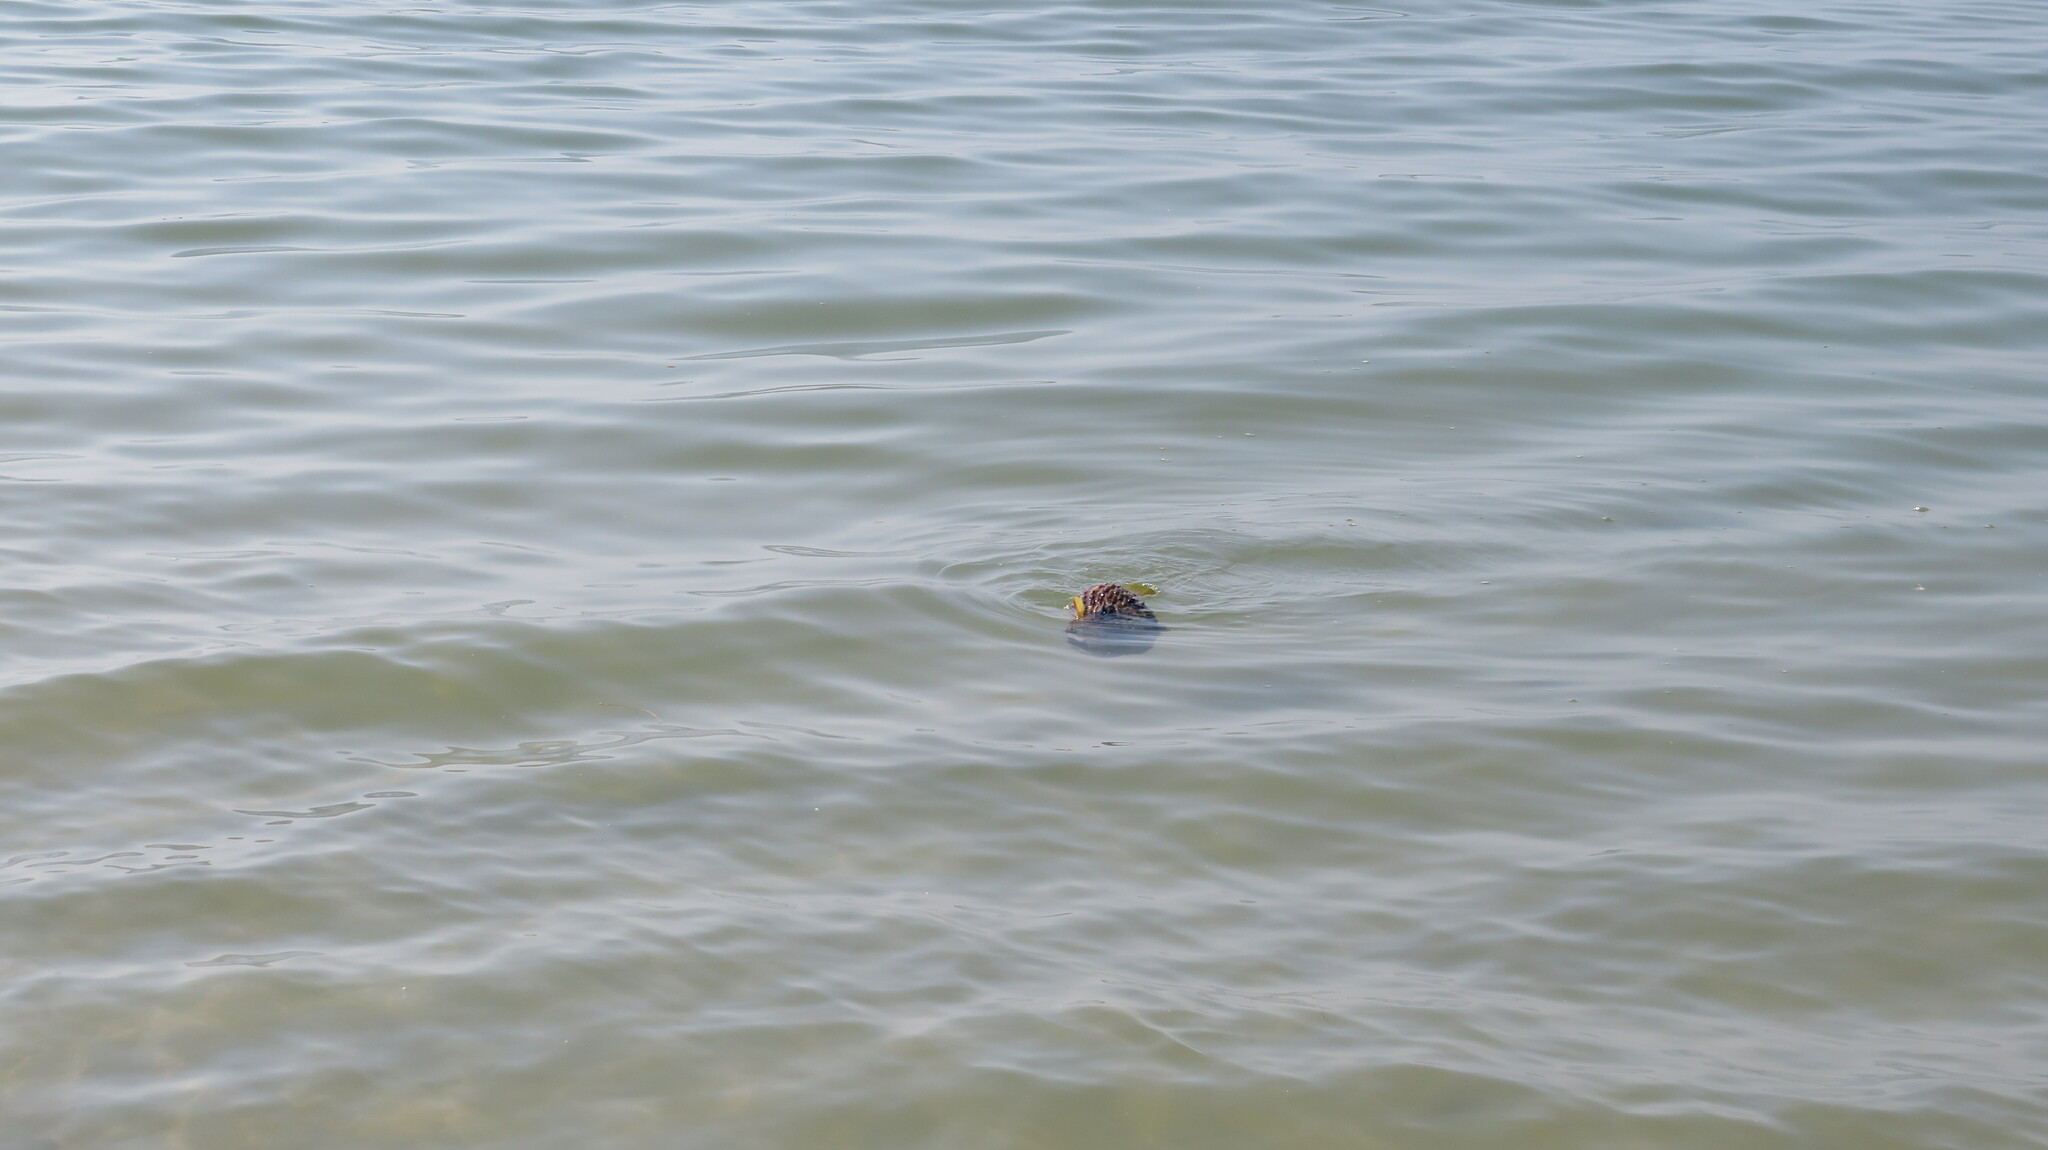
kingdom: Animalia
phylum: Chordata
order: Tetraodontiformes
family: Diodontidae
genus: Diodon
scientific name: Diodon liturosus
